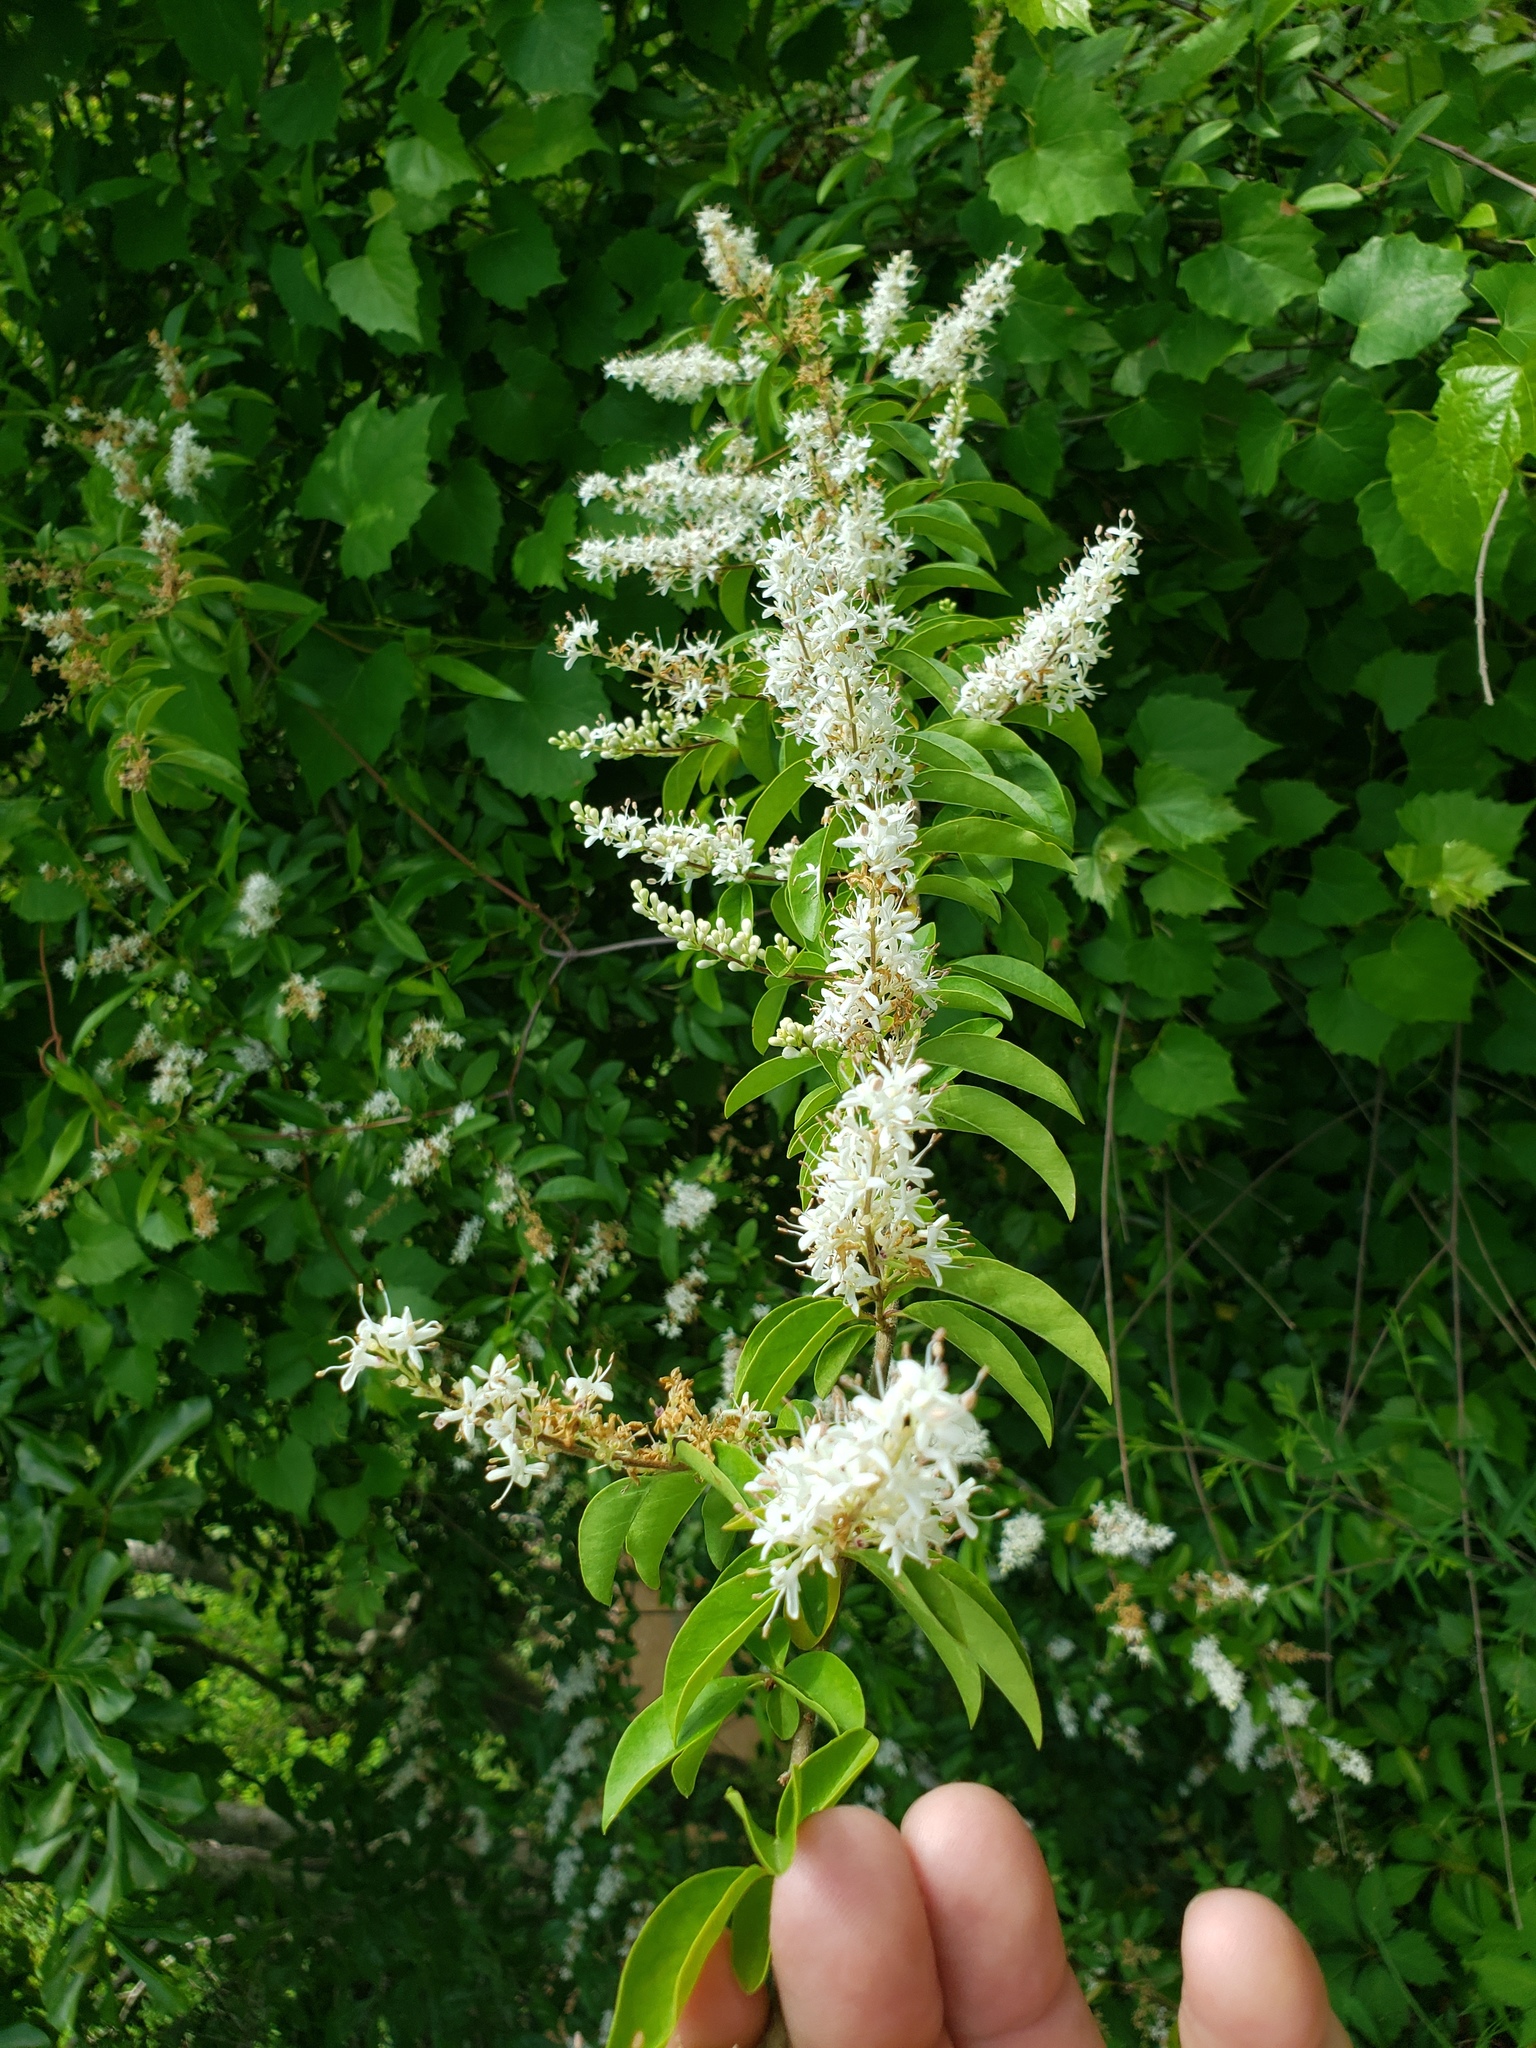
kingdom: Plantae
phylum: Tracheophyta
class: Magnoliopsida
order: Lamiales
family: Oleaceae
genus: Ligustrum
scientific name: Ligustrum sinense
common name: Chinese privet
